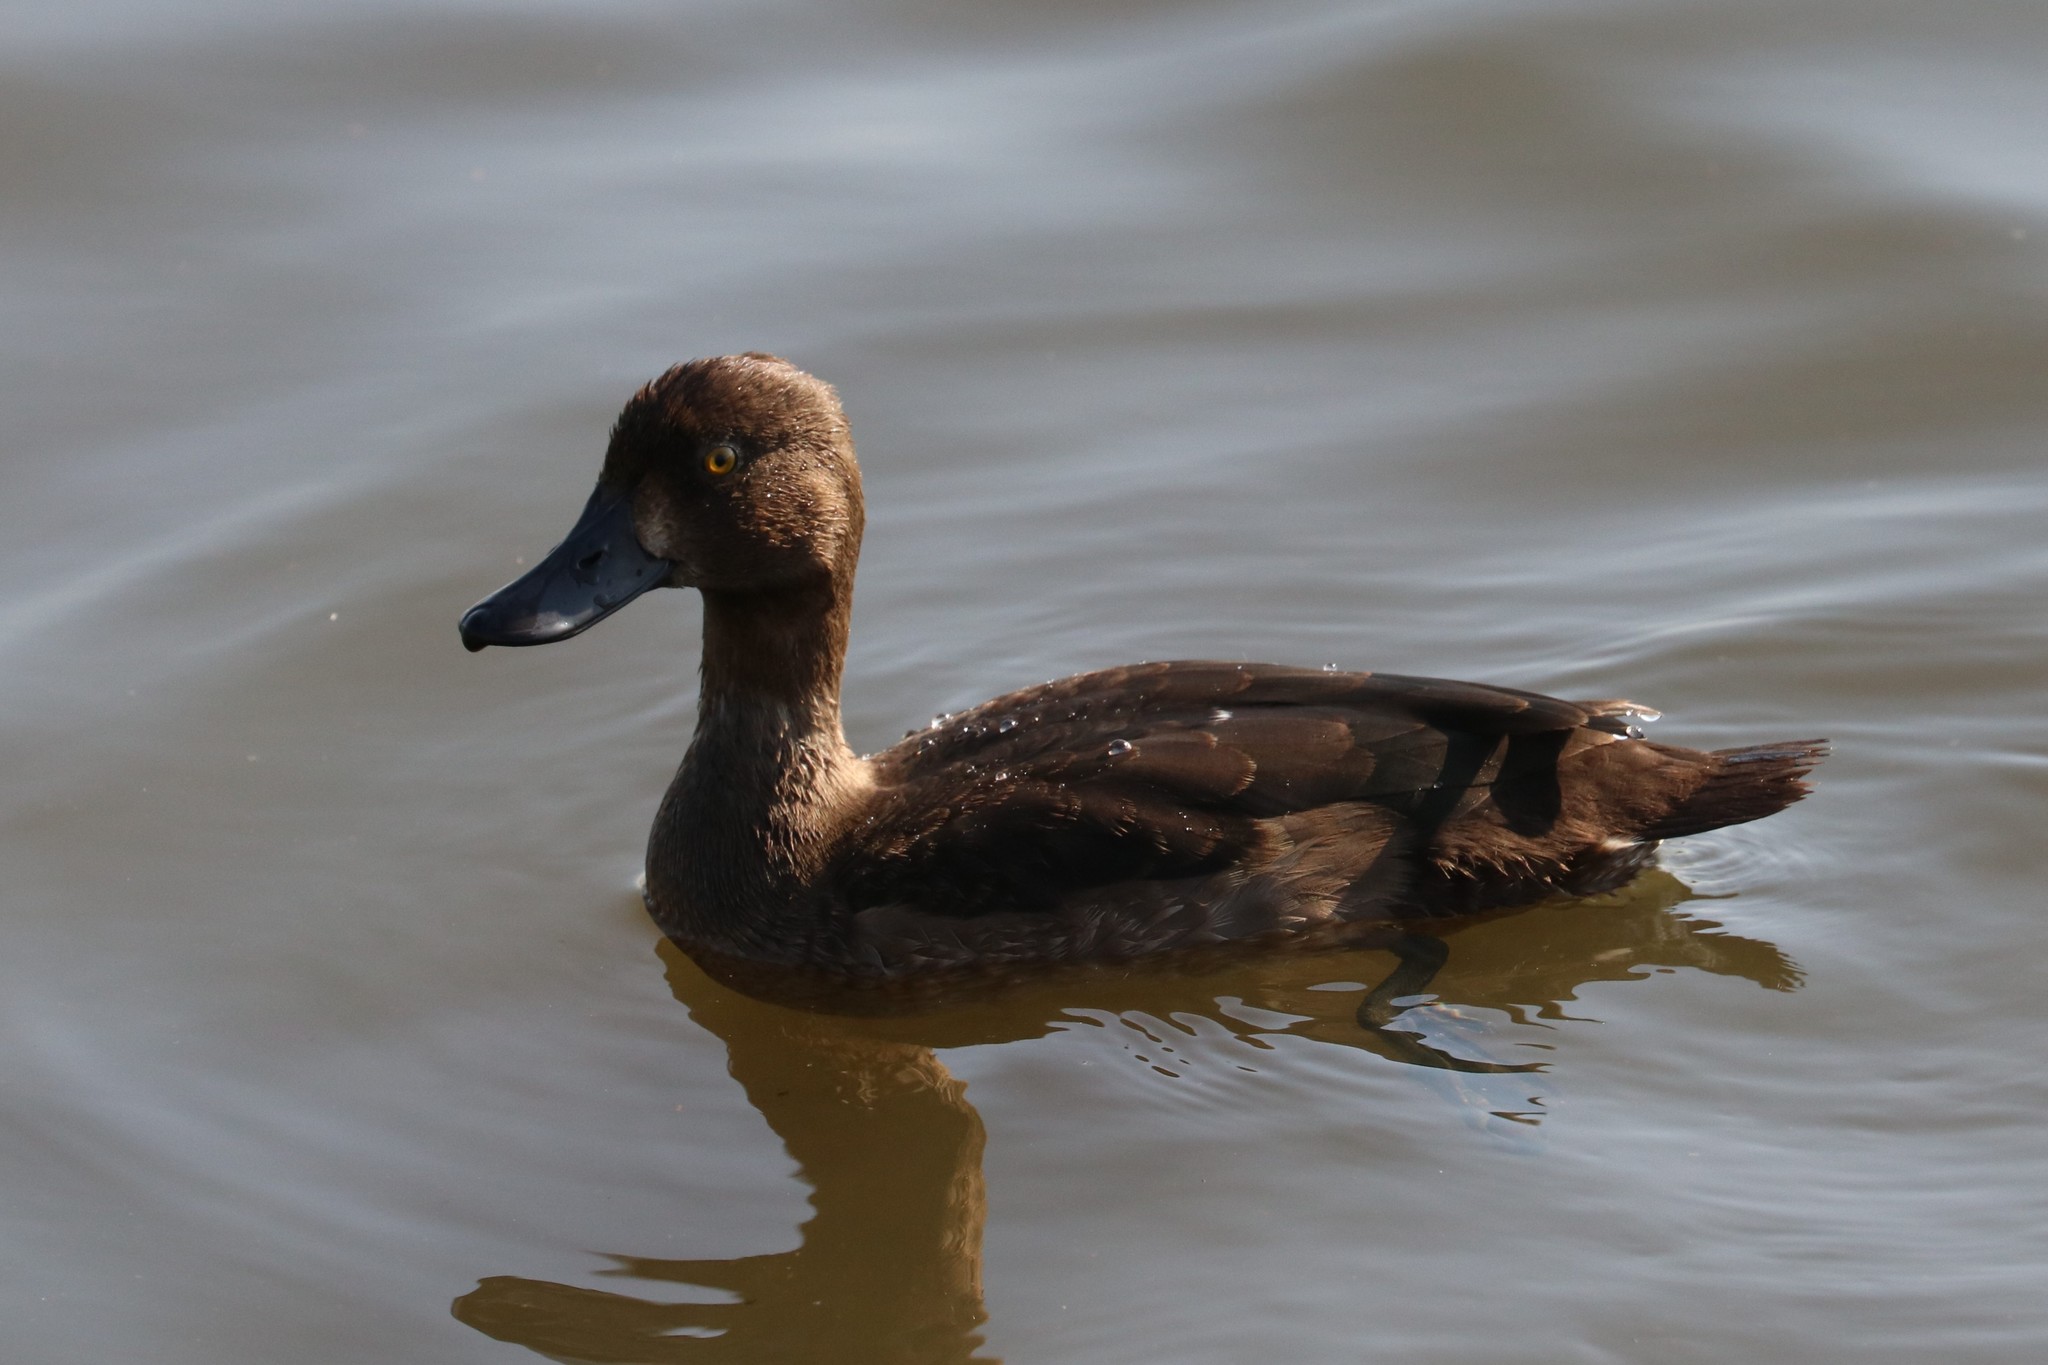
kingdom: Animalia
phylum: Chordata
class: Aves
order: Anseriformes
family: Anatidae
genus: Aythya
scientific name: Aythya fuligula
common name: Tufted duck
